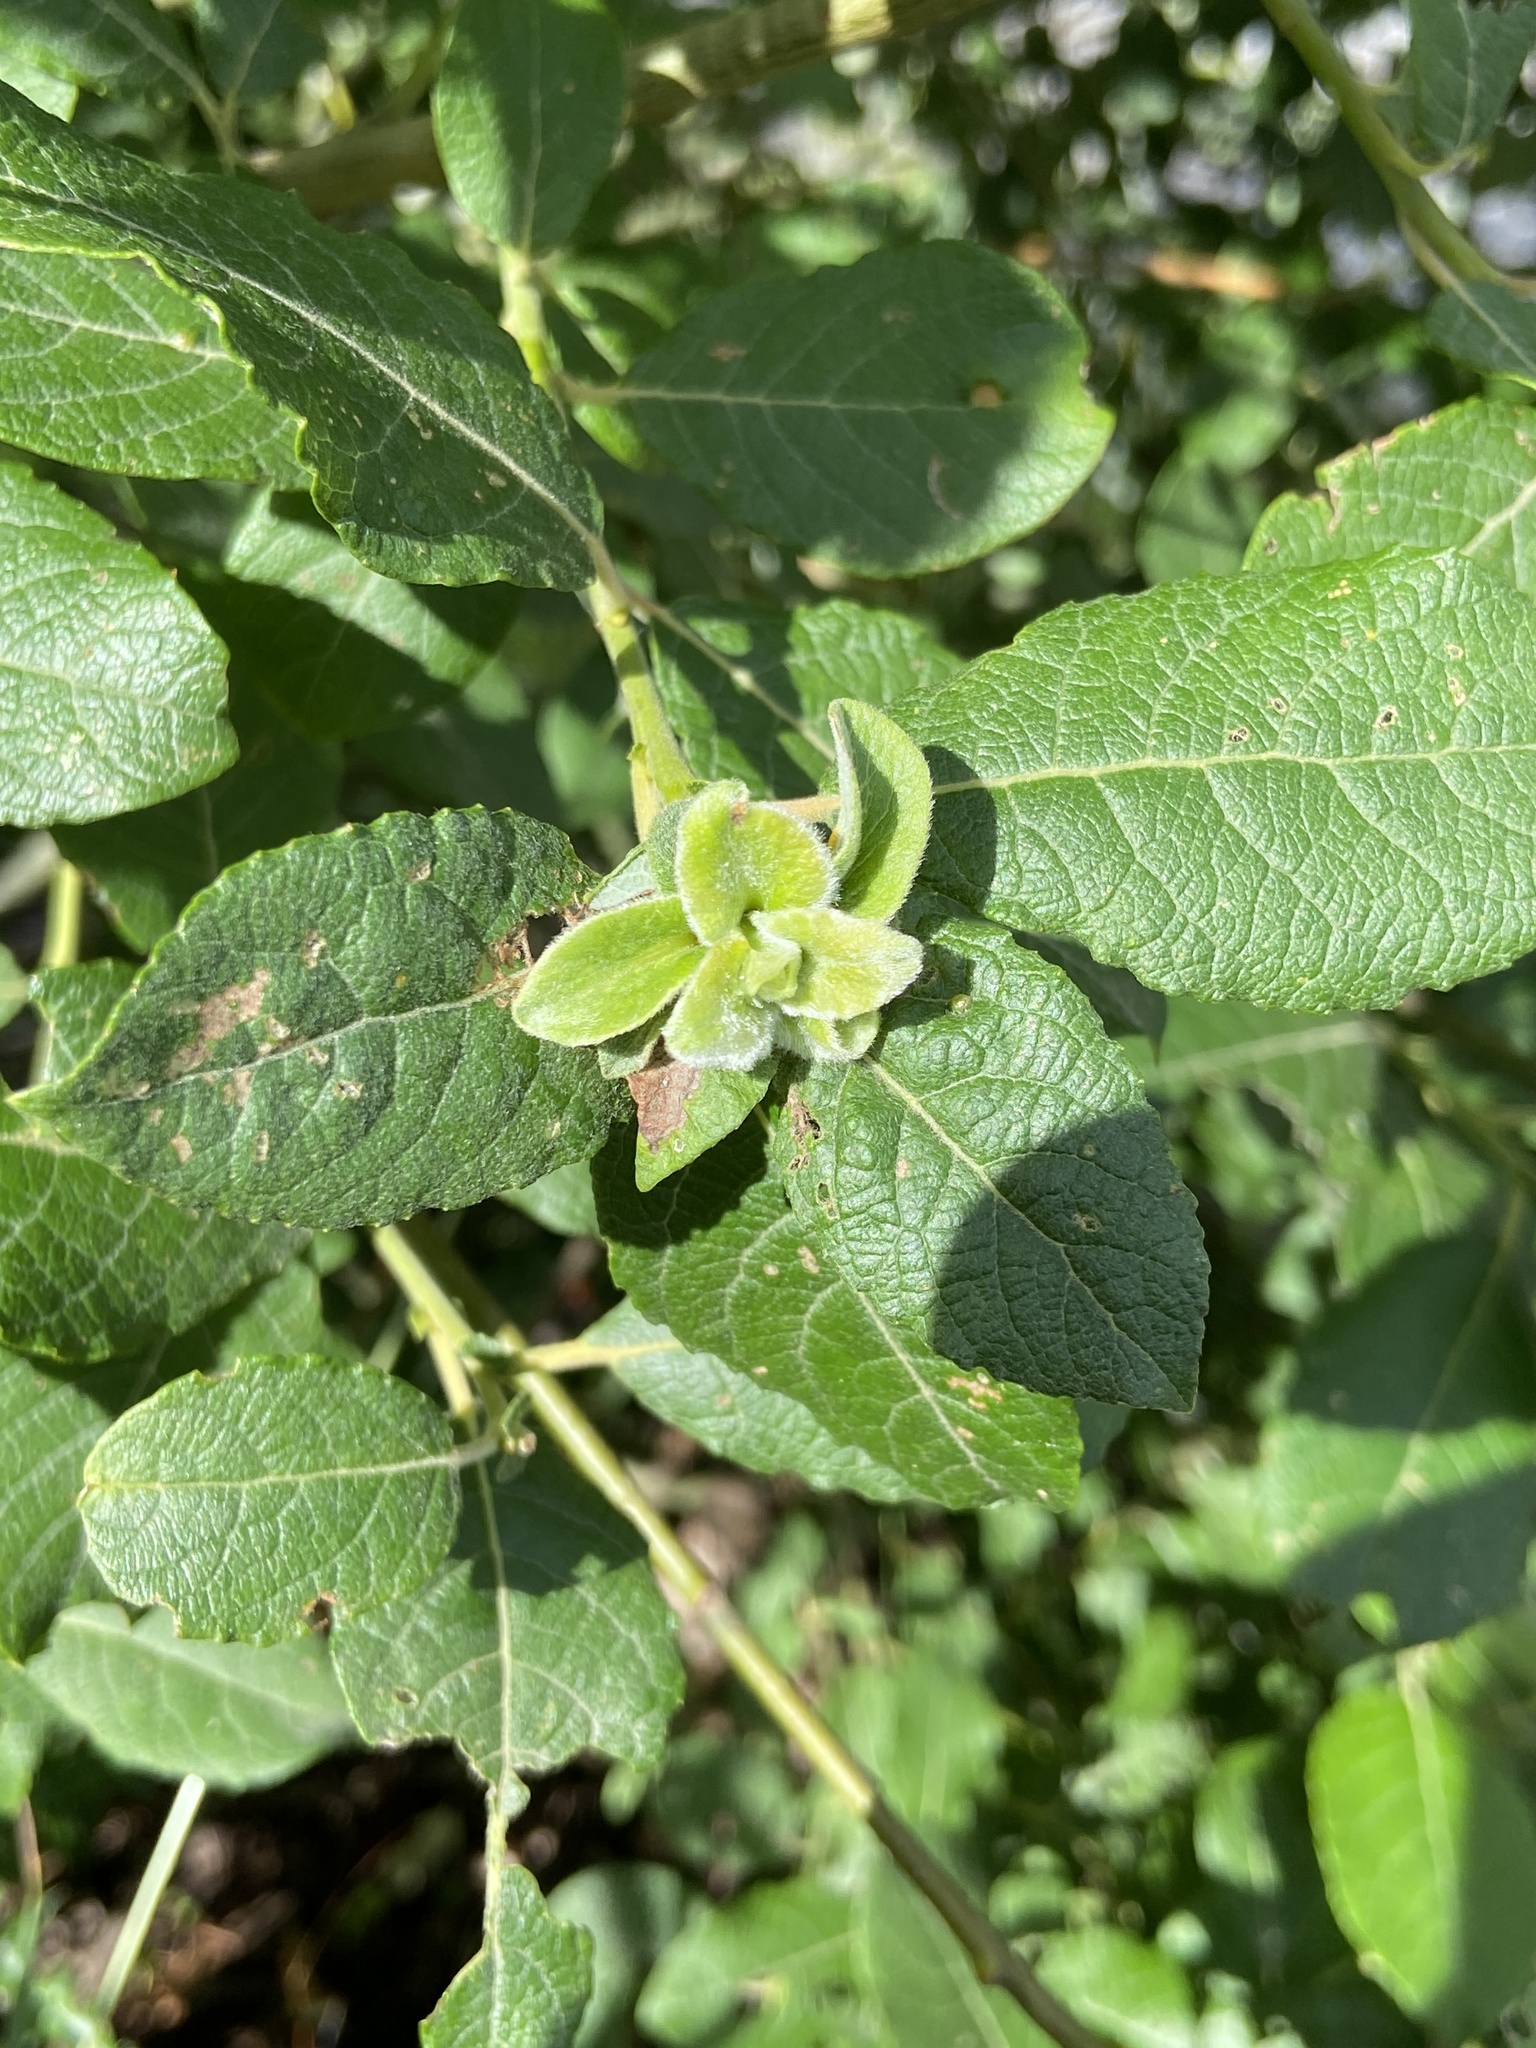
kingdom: Animalia
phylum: Arthropoda
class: Insecta
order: Diptera
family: Cecidomyiidae
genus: Rabdophaga
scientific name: Rabdophaga rosaria
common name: Willow rose gall midge
